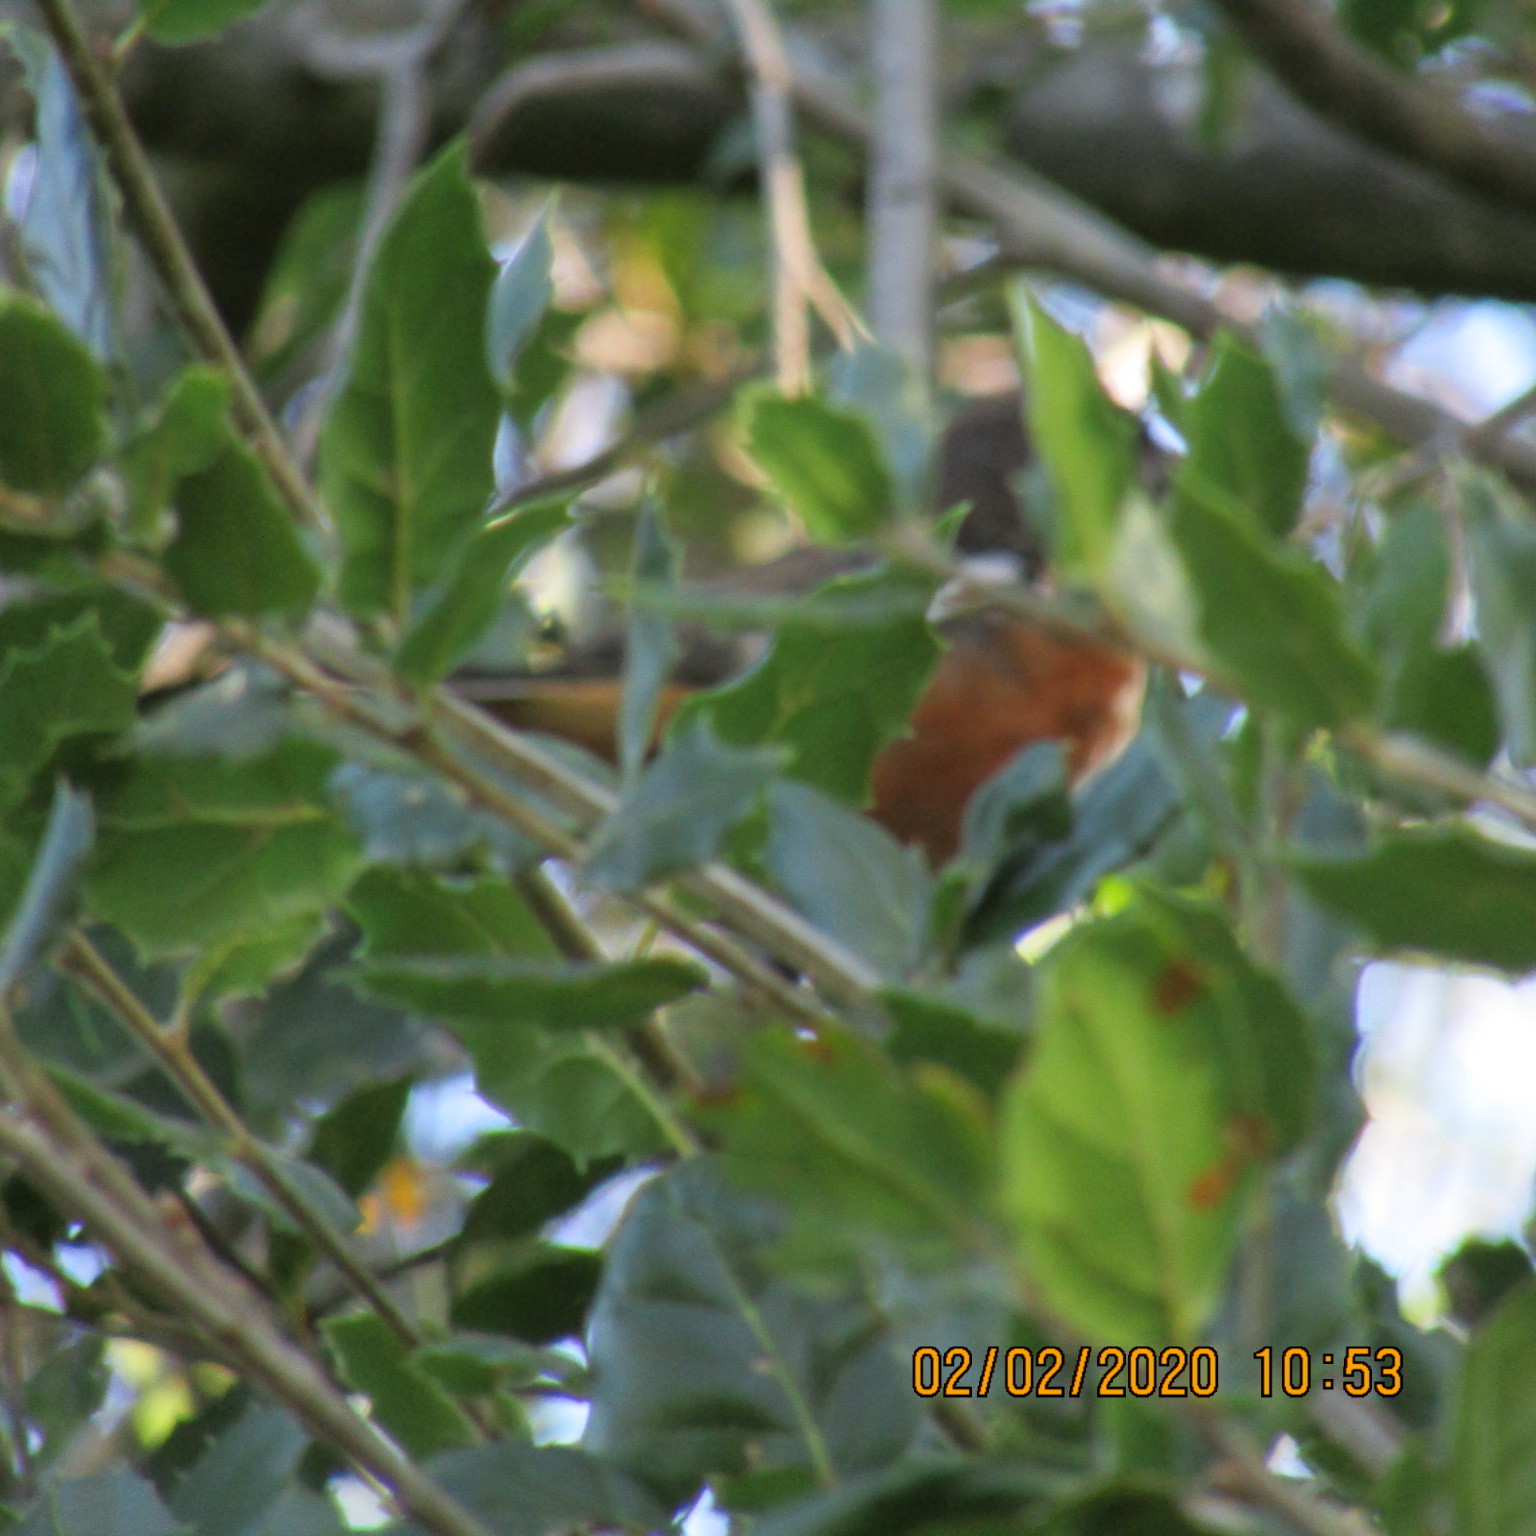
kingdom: Animalia
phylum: Chordata
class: Aves
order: Passeriformes
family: Passerellidae
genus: Pipilo
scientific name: Pipilo maculatus
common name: Spotted towhee
